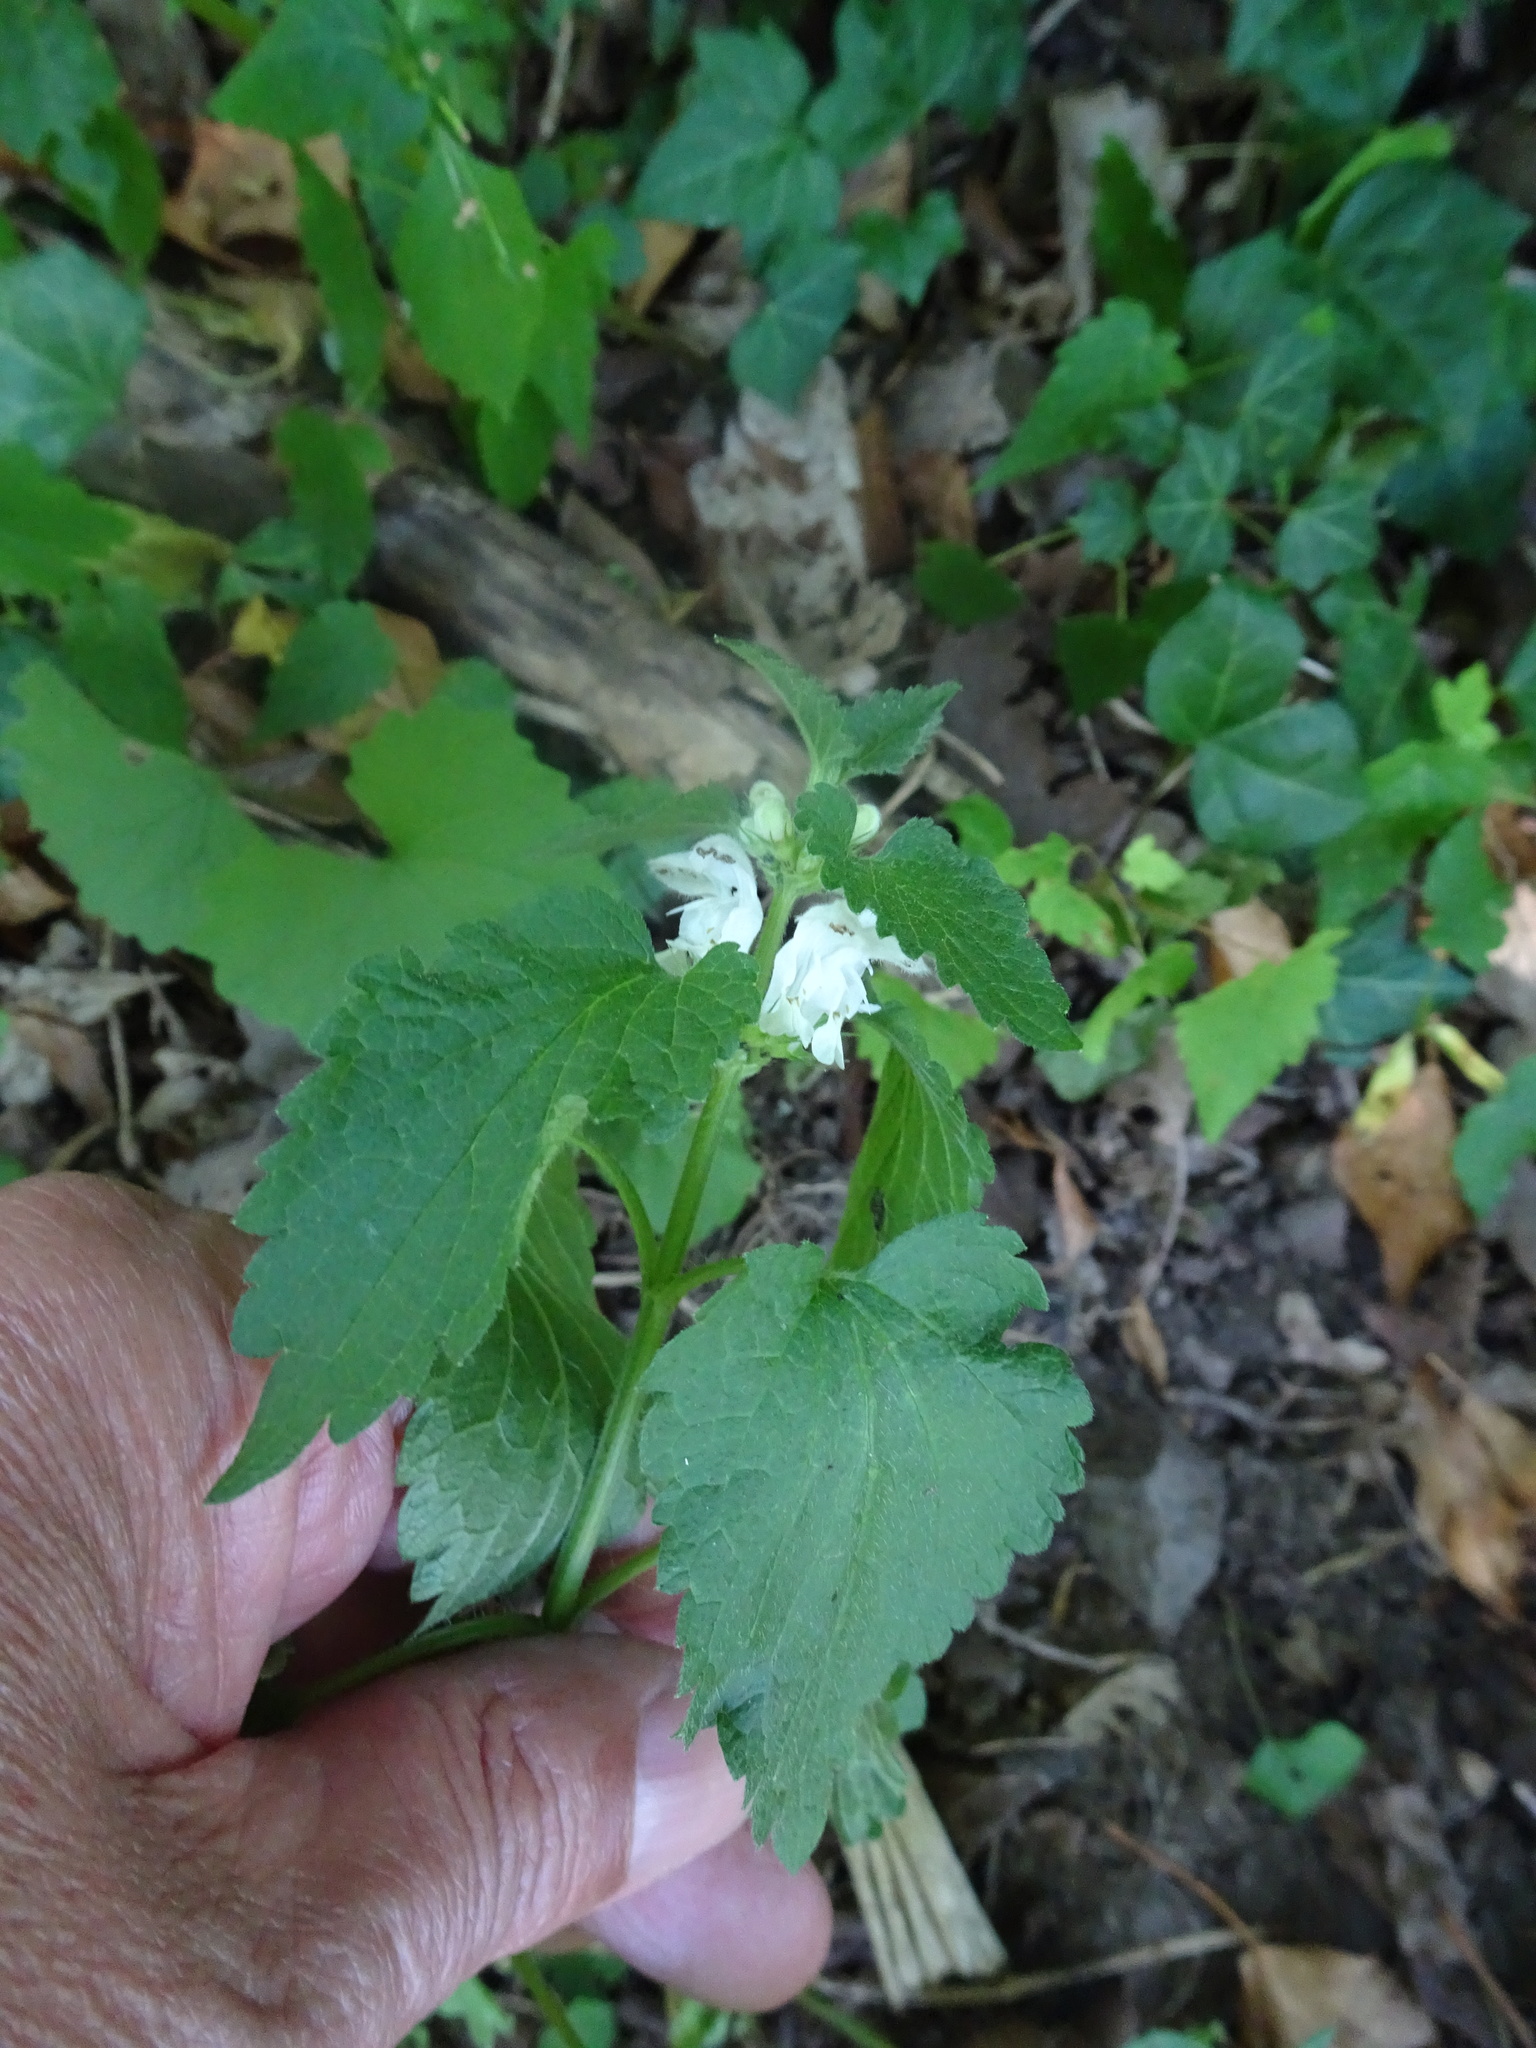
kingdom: Plantae
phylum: Tracheophyta
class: Magnoliopsida
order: Lamiales
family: Lamiaceae
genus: Lamium
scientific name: Lamium album
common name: White dead-nettle
